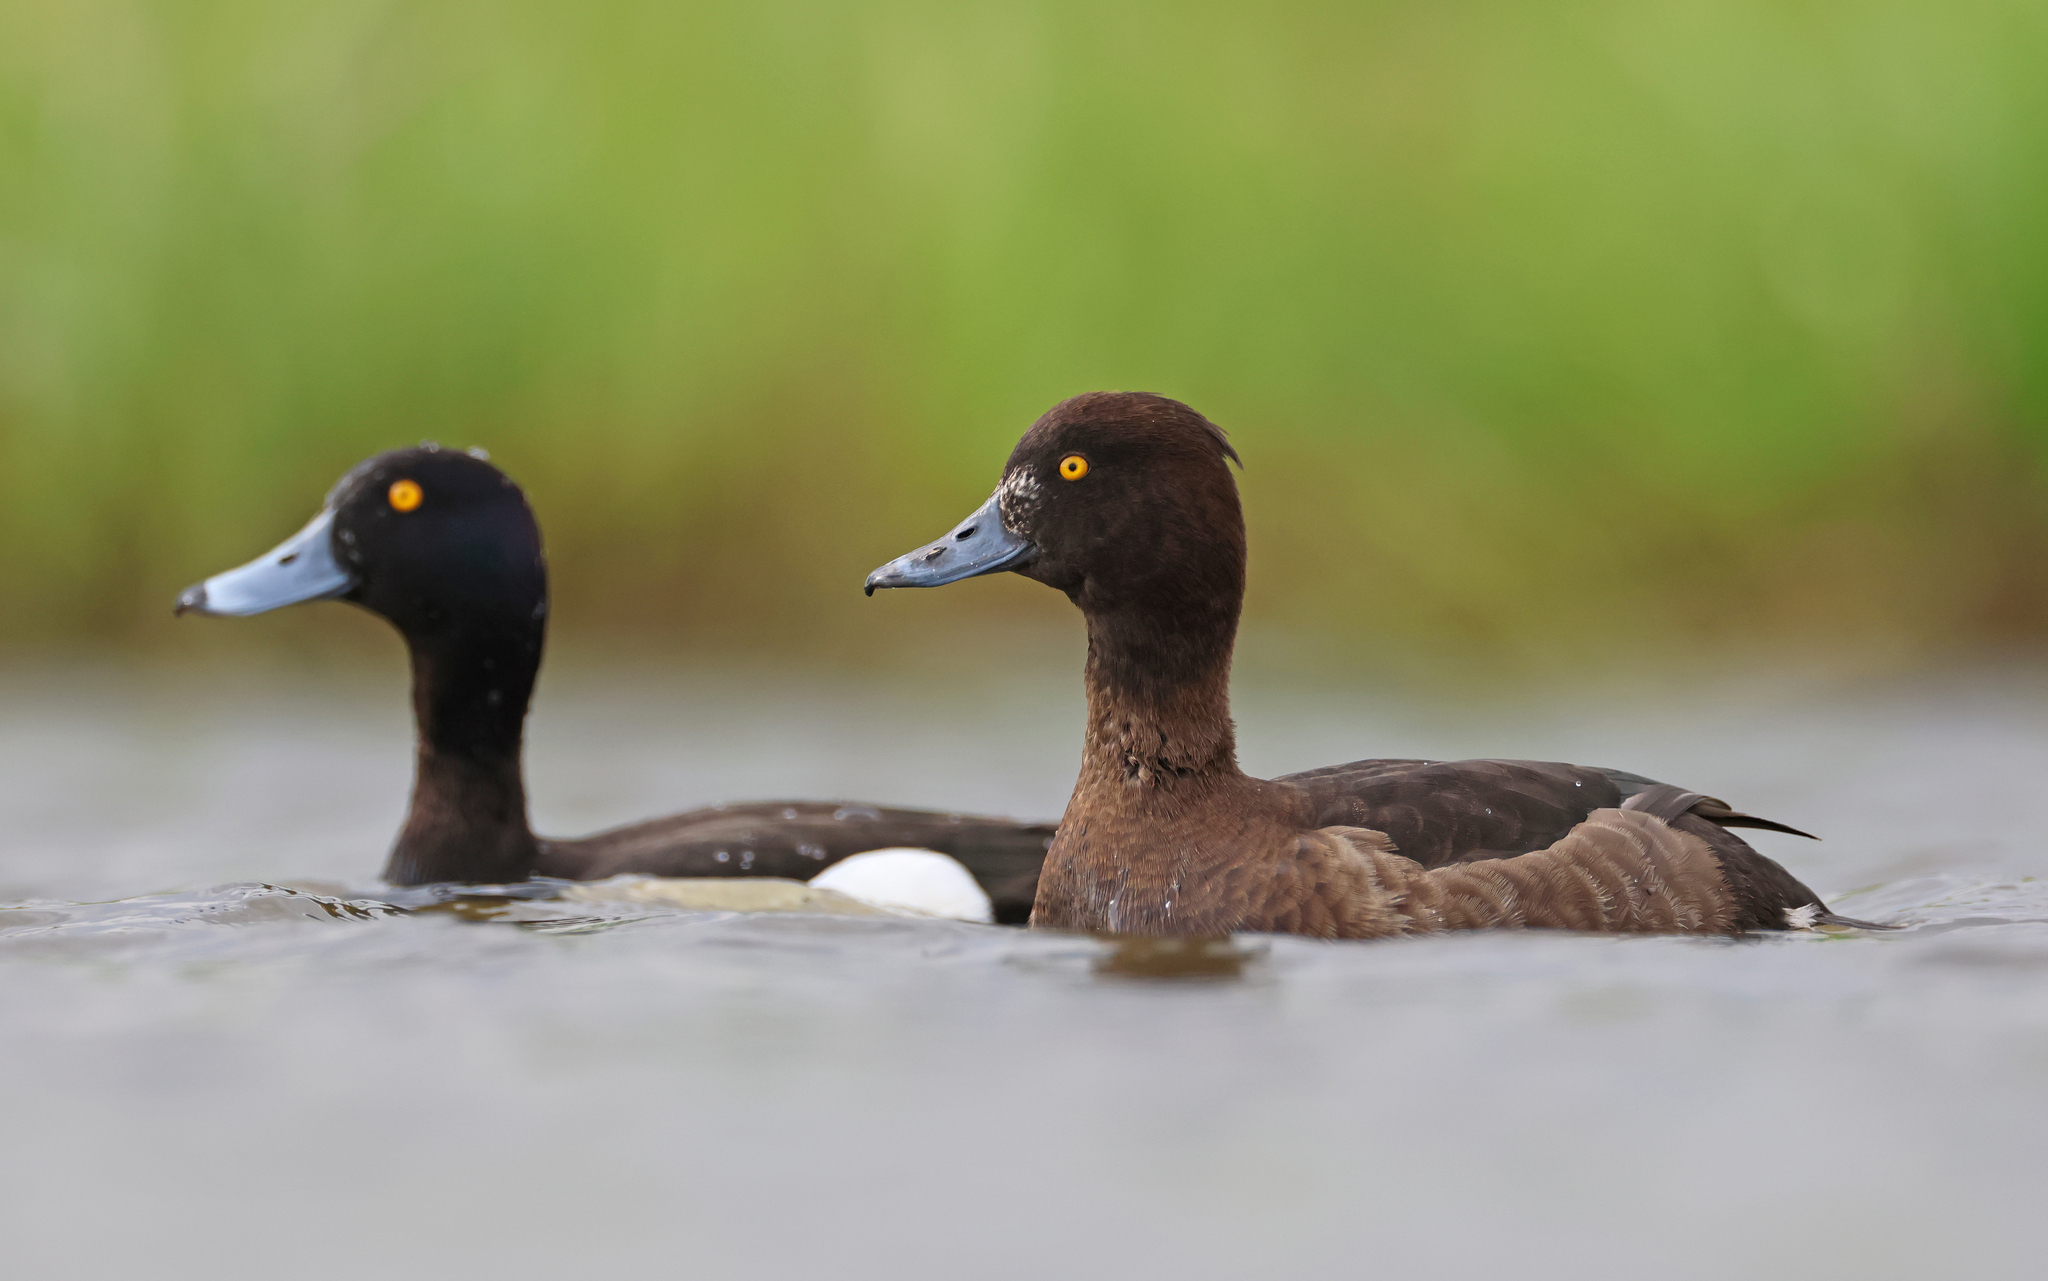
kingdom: Animalia
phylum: Chordata
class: Aves
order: Anseriformes
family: Anatidae
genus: Aythya
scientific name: Aythya fuligula
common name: Tufted duck
